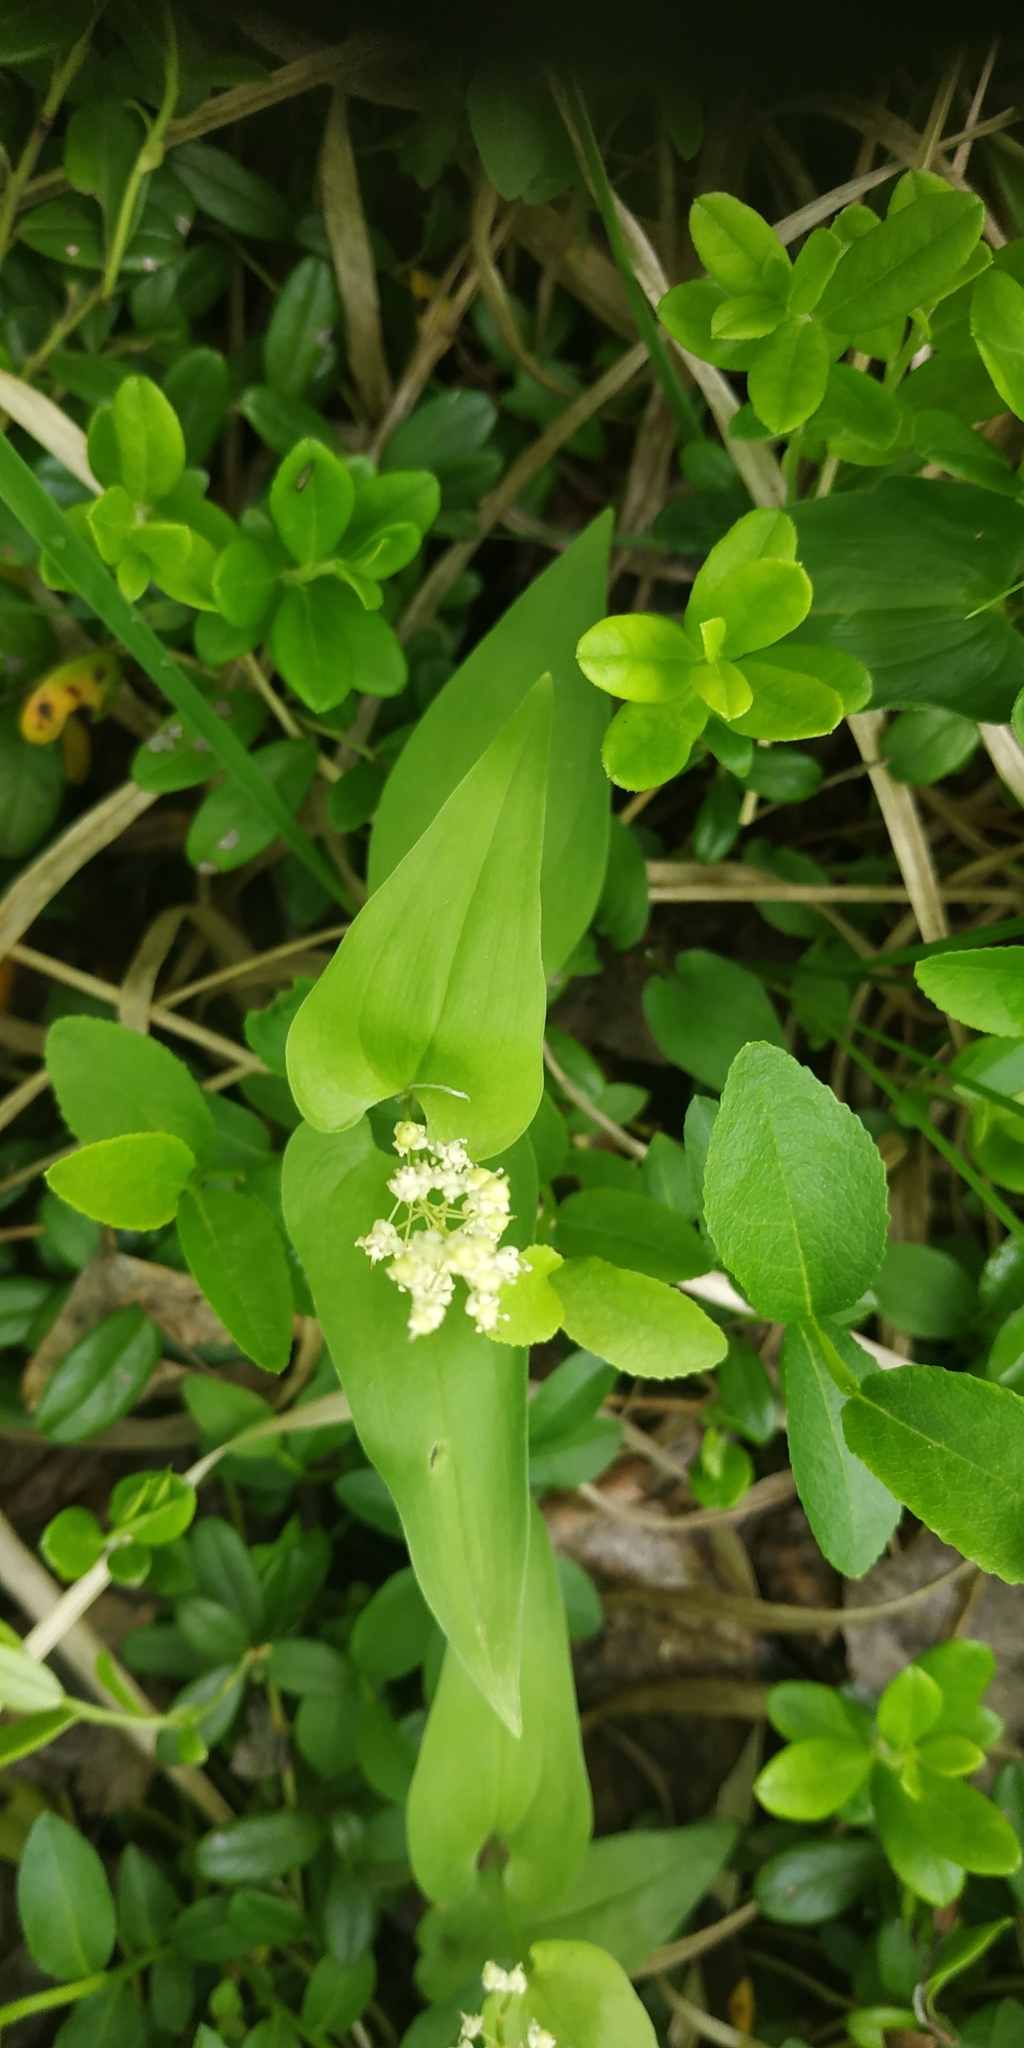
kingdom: Plantae
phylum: Tracheophyta
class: Liliopsida
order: Asparagales
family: Asparagaceae
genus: Maianthemum
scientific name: Maianthemum bifolium
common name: May lily
